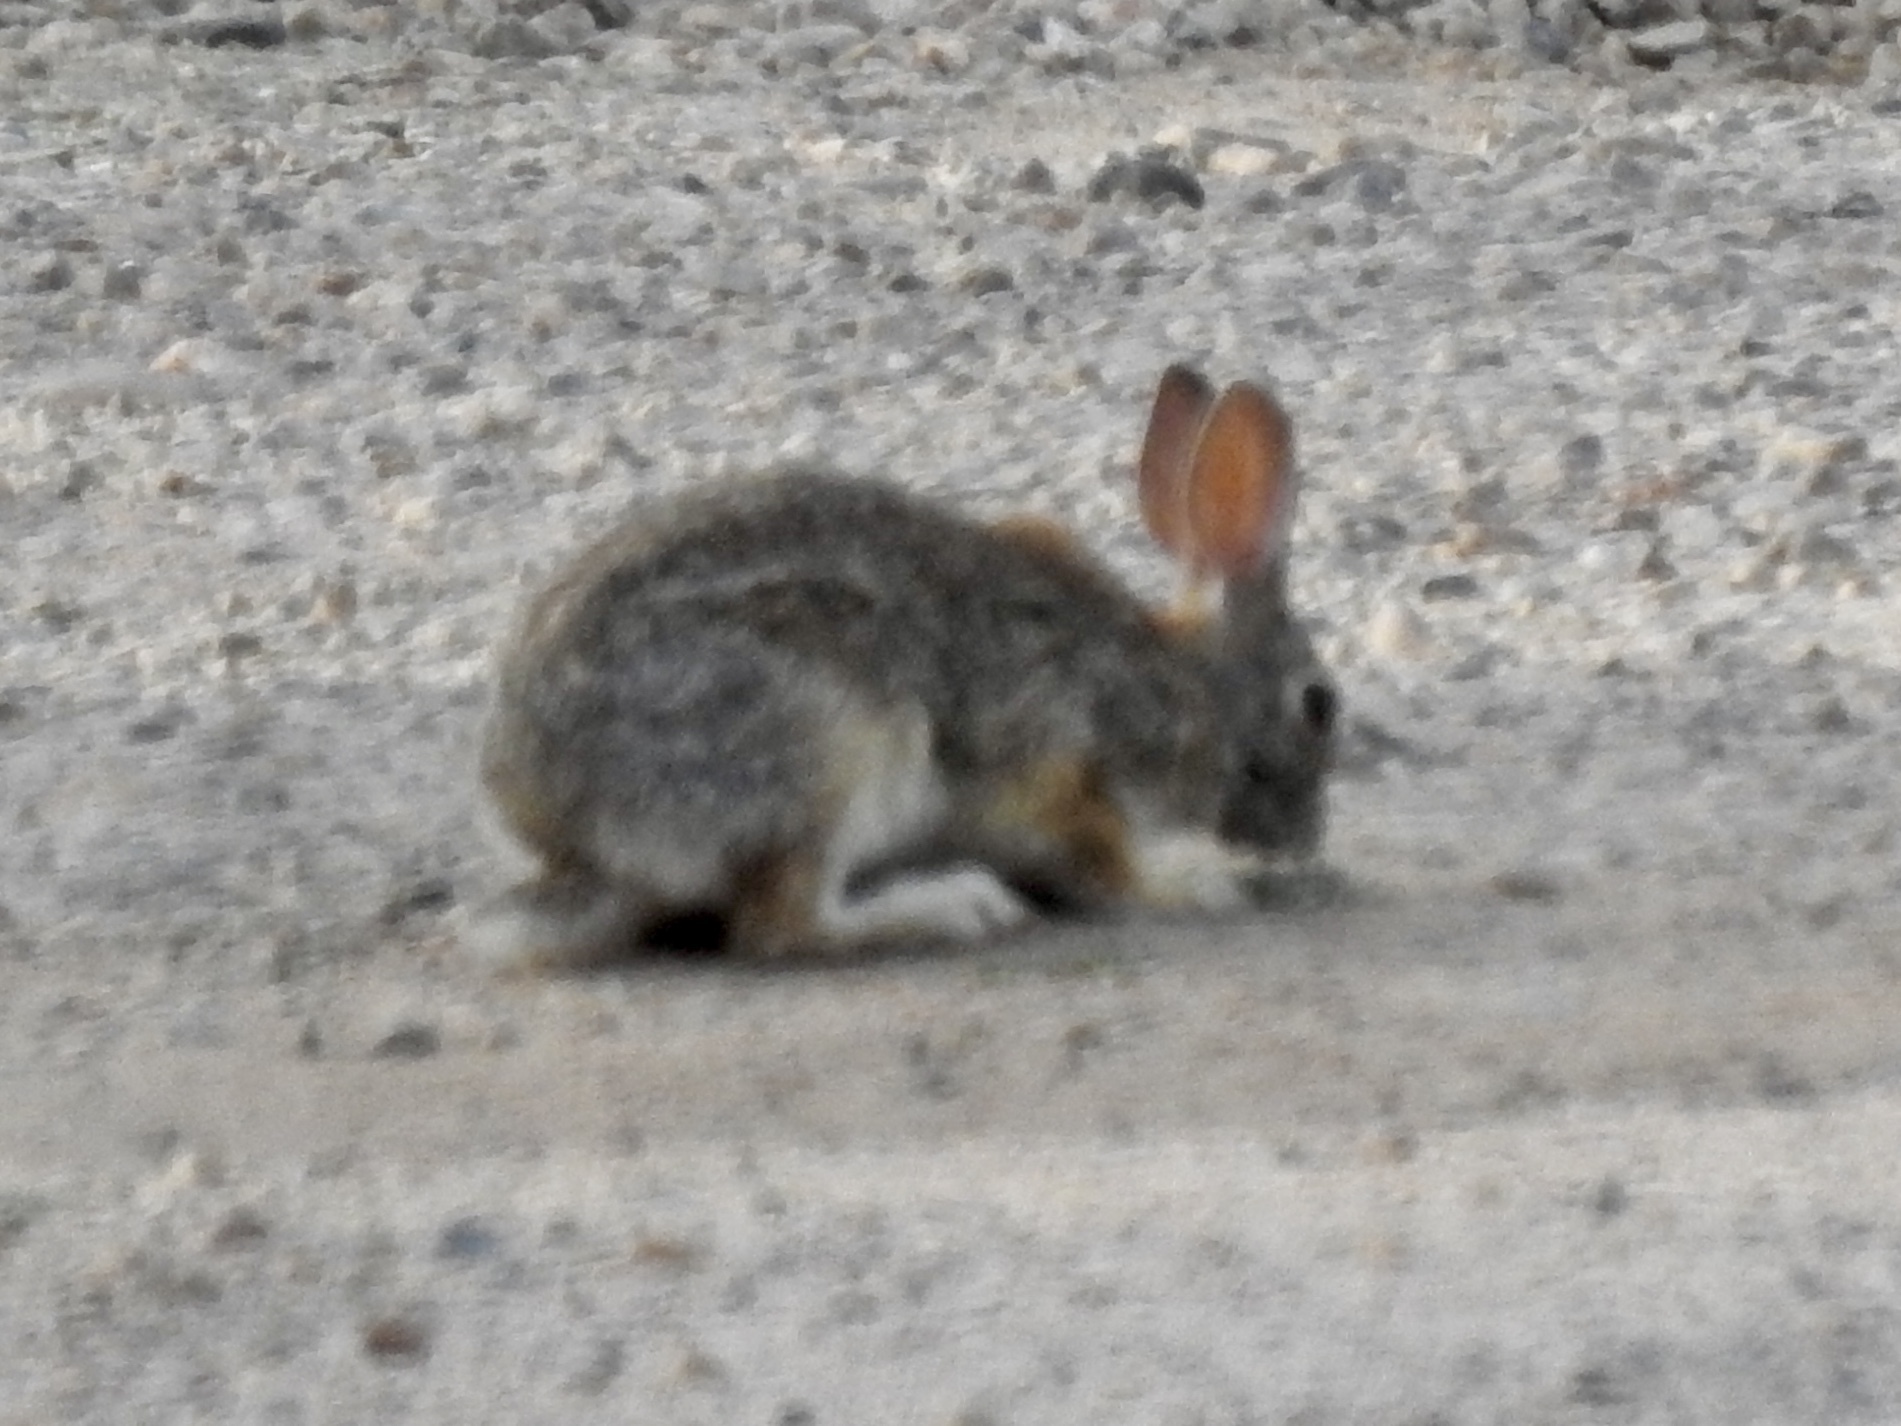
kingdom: Animalia
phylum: Chordata
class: Mammalia
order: Lagomorpha
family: Leporidae
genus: Sylvilagus
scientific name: Sylvilagus audubonii
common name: Desert cottontail
